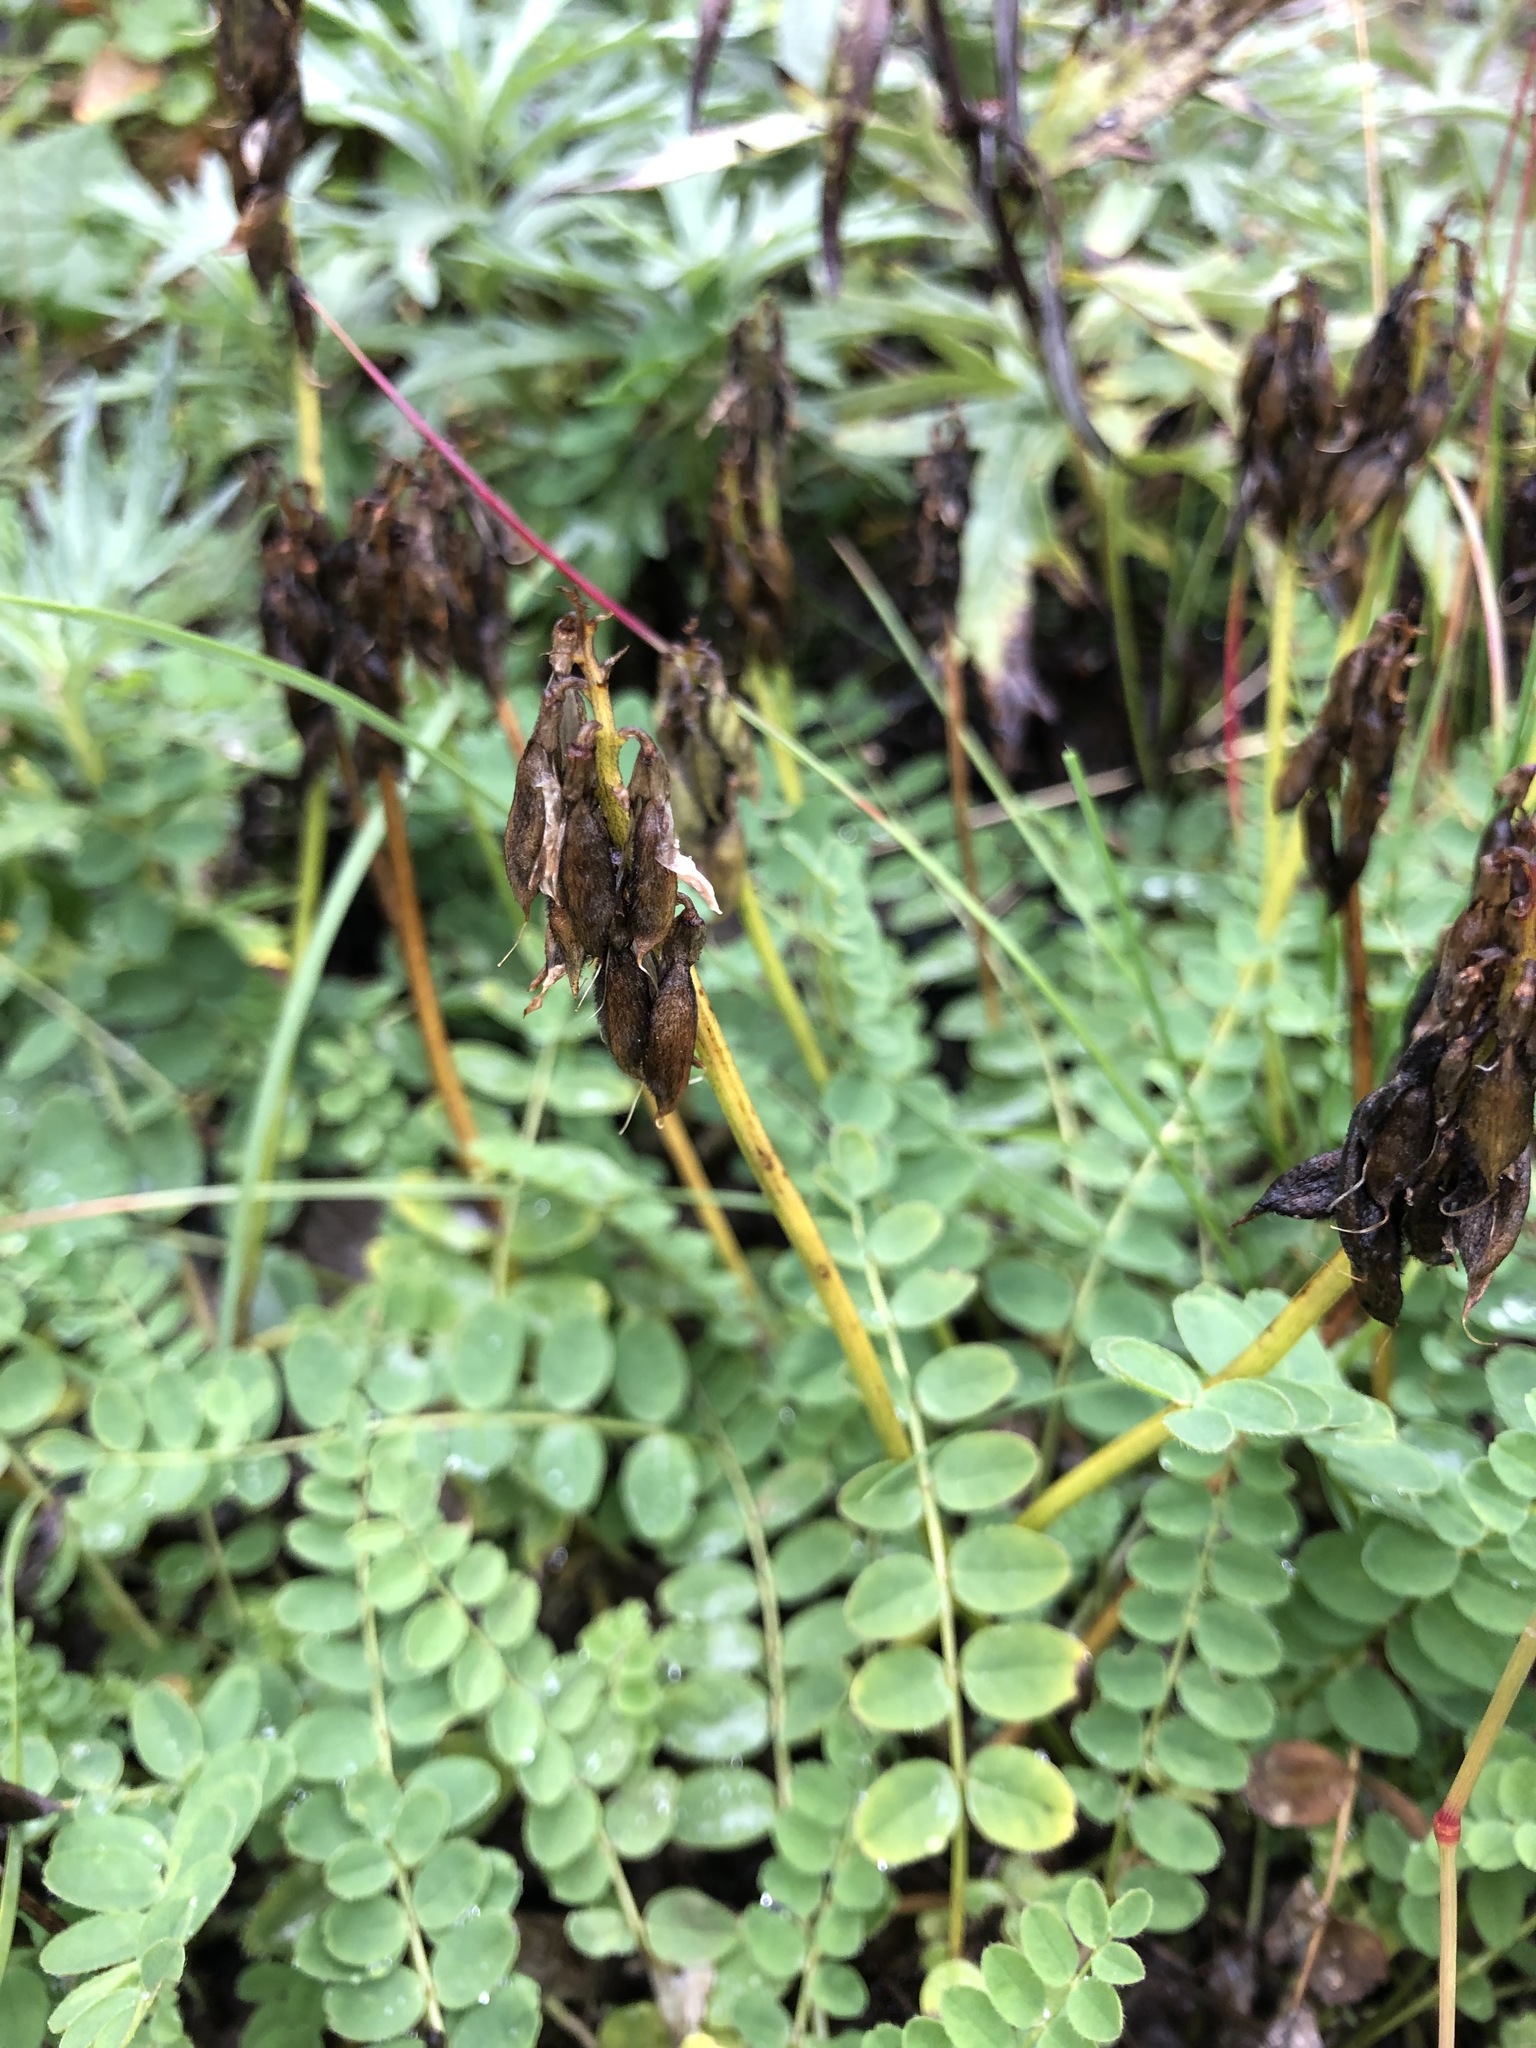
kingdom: Plantae
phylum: Tracheophyta
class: Magnoliopsida
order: Fabales
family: Fabaceae
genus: Astragalus
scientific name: Astragalus alpinus
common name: Alpine milk-vetch
